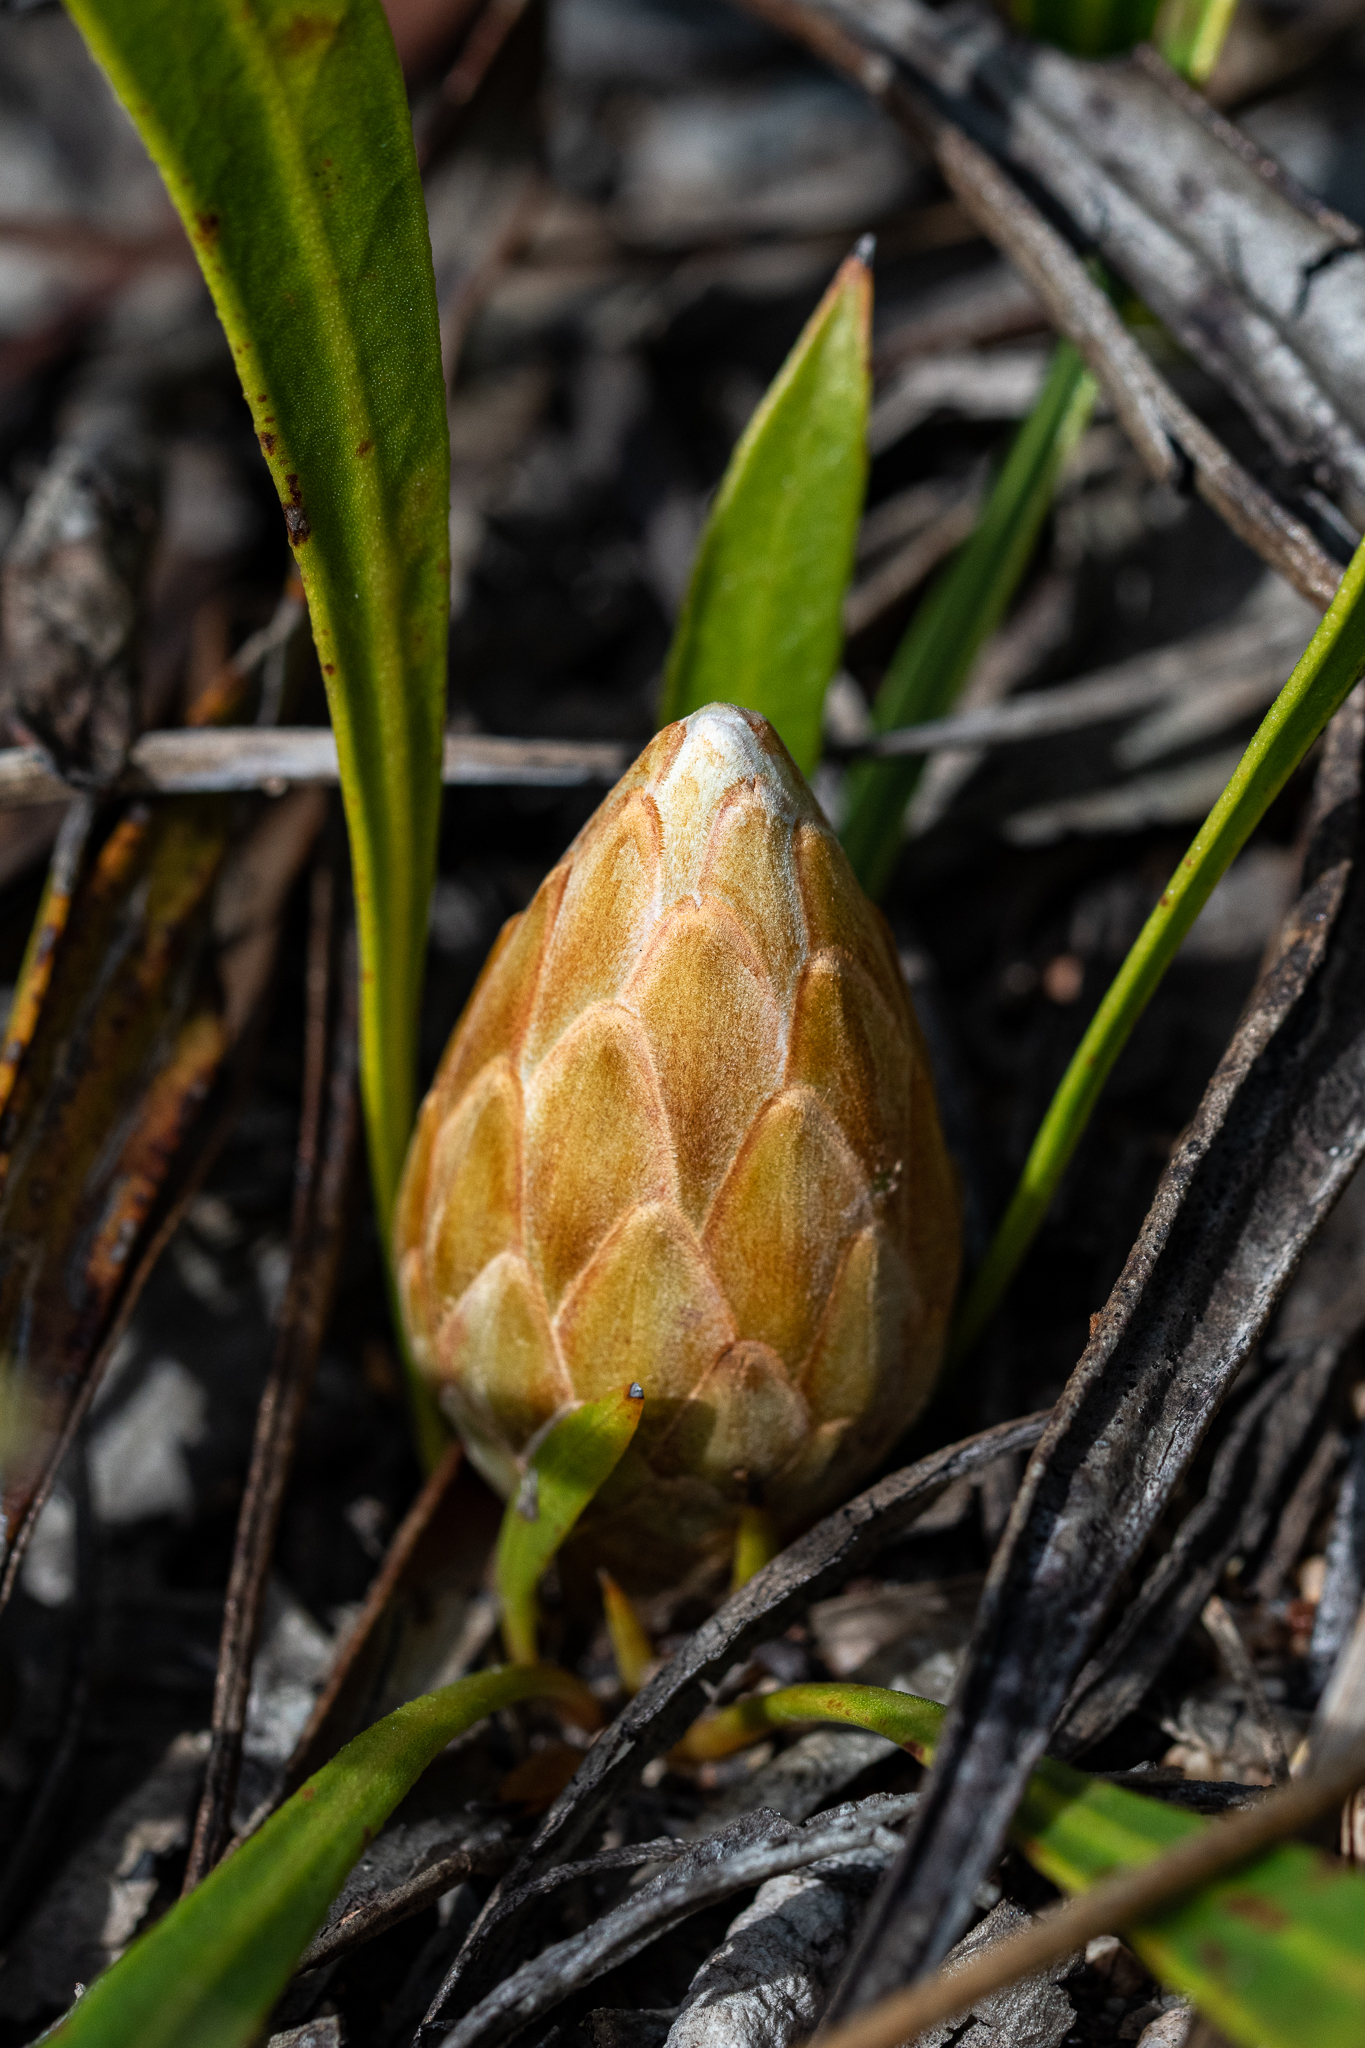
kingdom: Plantae
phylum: Tracheophyta
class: Magnoliopsida
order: Proteales
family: Proteaceae
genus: Protea
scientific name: Protea scabra
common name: Sandpaper-leaf sugarbush
